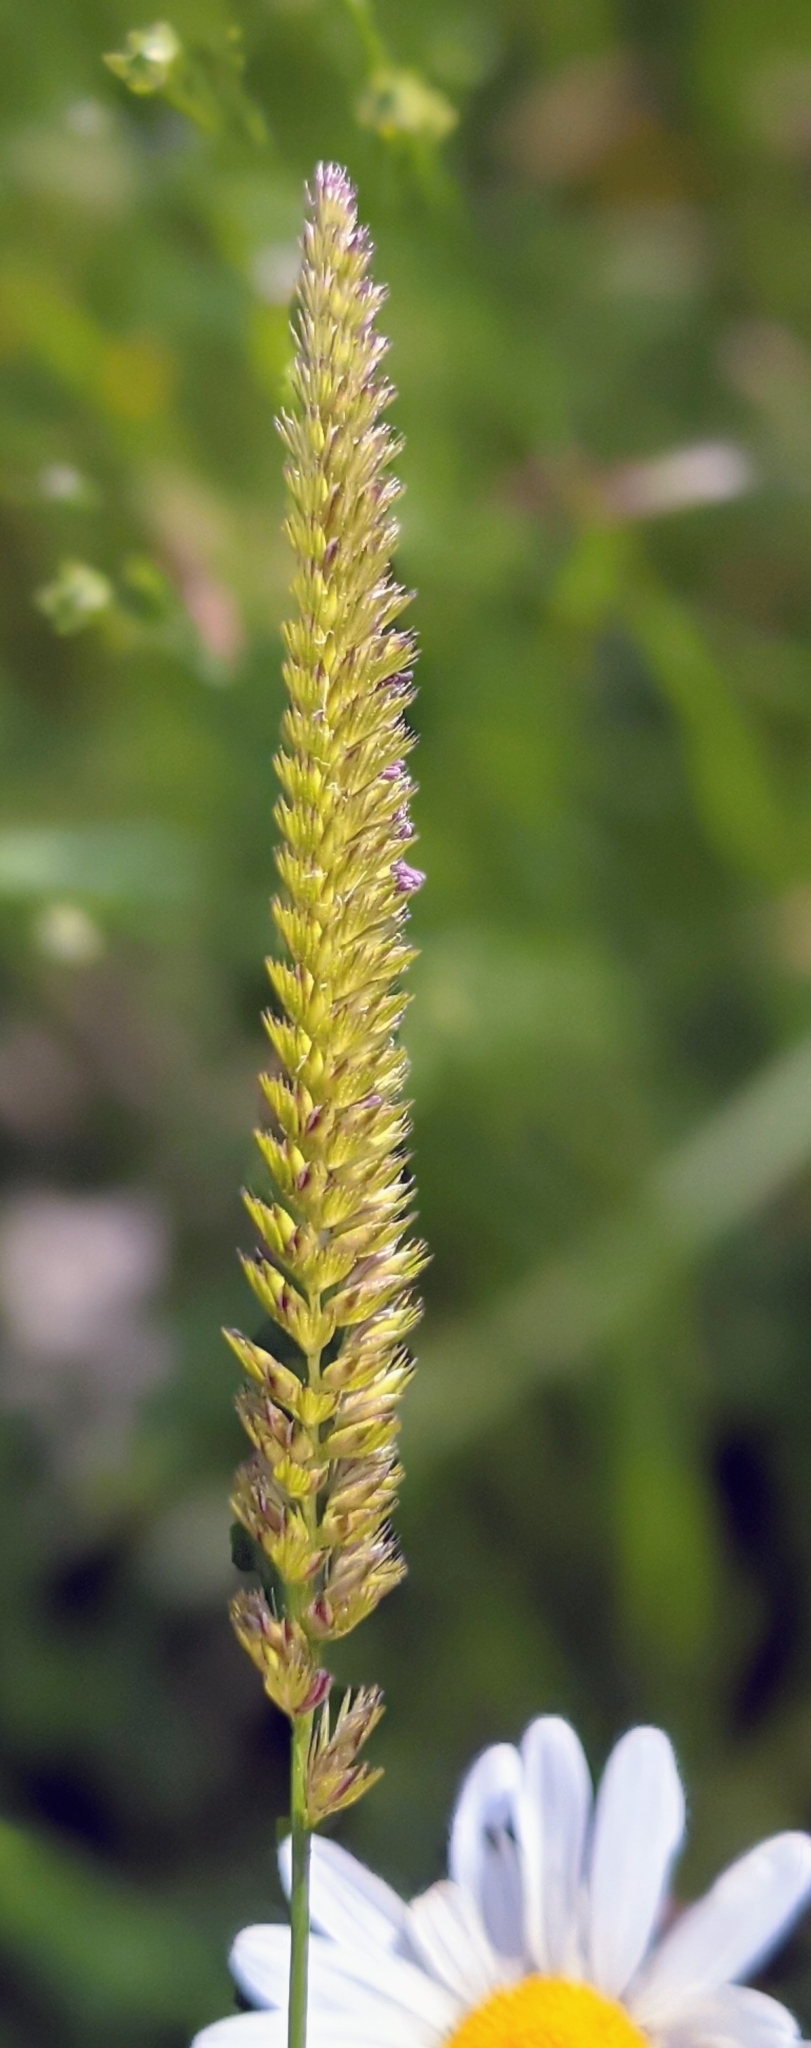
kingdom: Plantae
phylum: Tracheophyta
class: Liliopsida
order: Poales
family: Poaceae
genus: Cynosurus
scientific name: Cynosurus cristatus
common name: Crested dog's-tail
